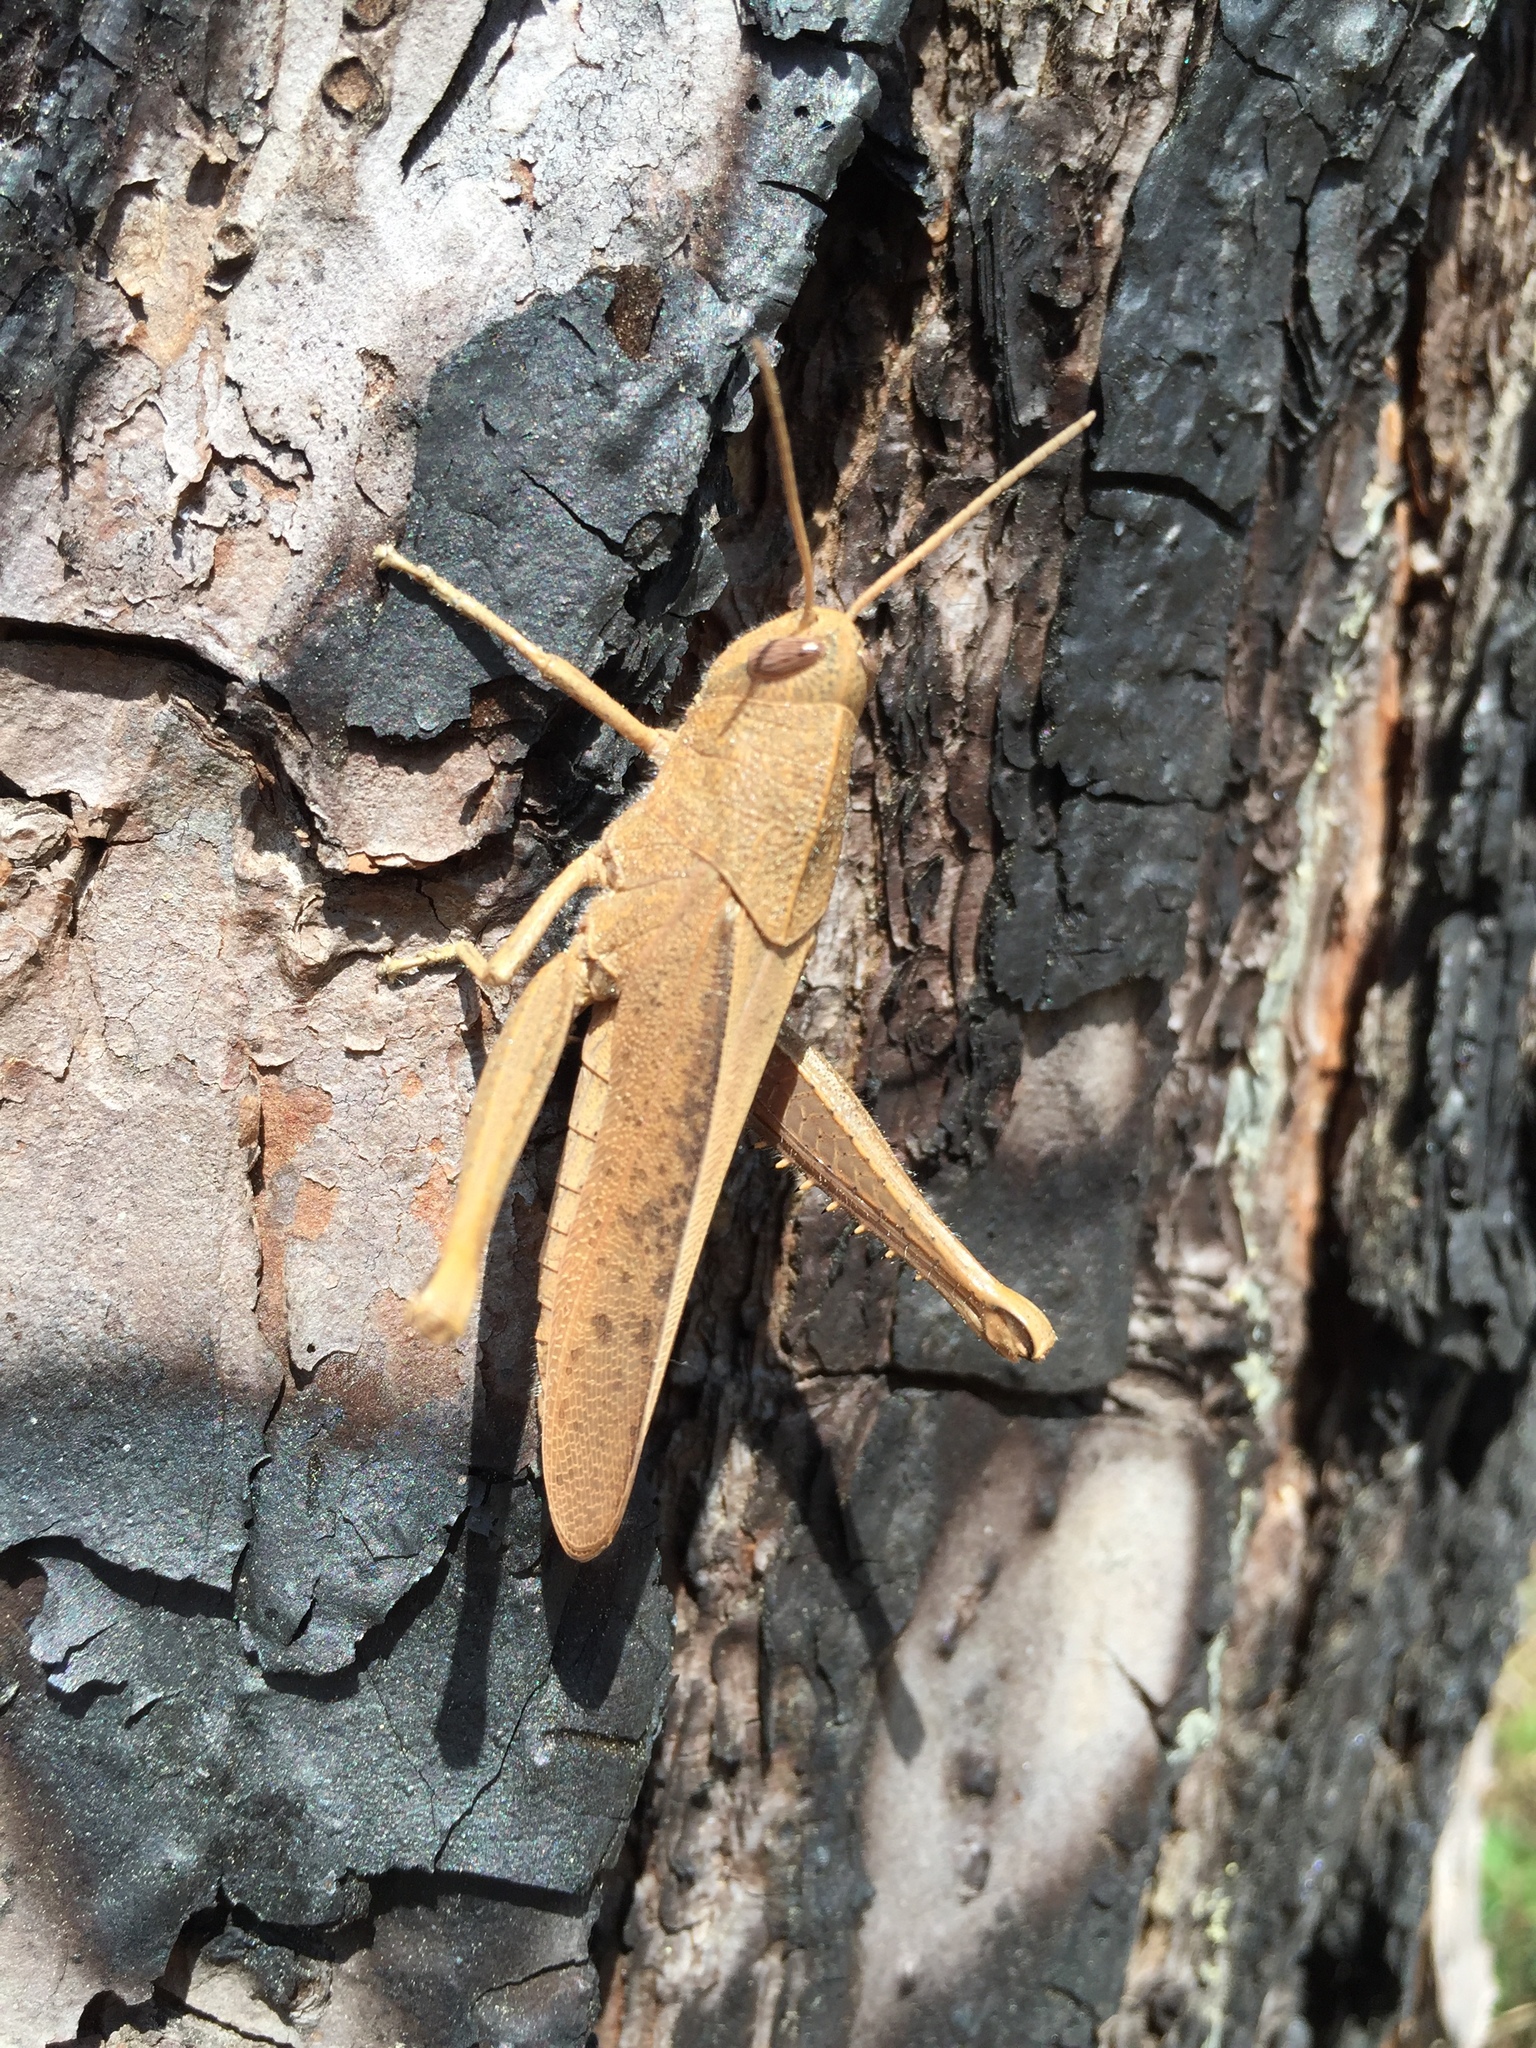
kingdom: Animalia
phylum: Arthropoda
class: Insecta
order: Orthoptera
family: Acrididae
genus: Schistocerca
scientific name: Schistocerca damnifica
